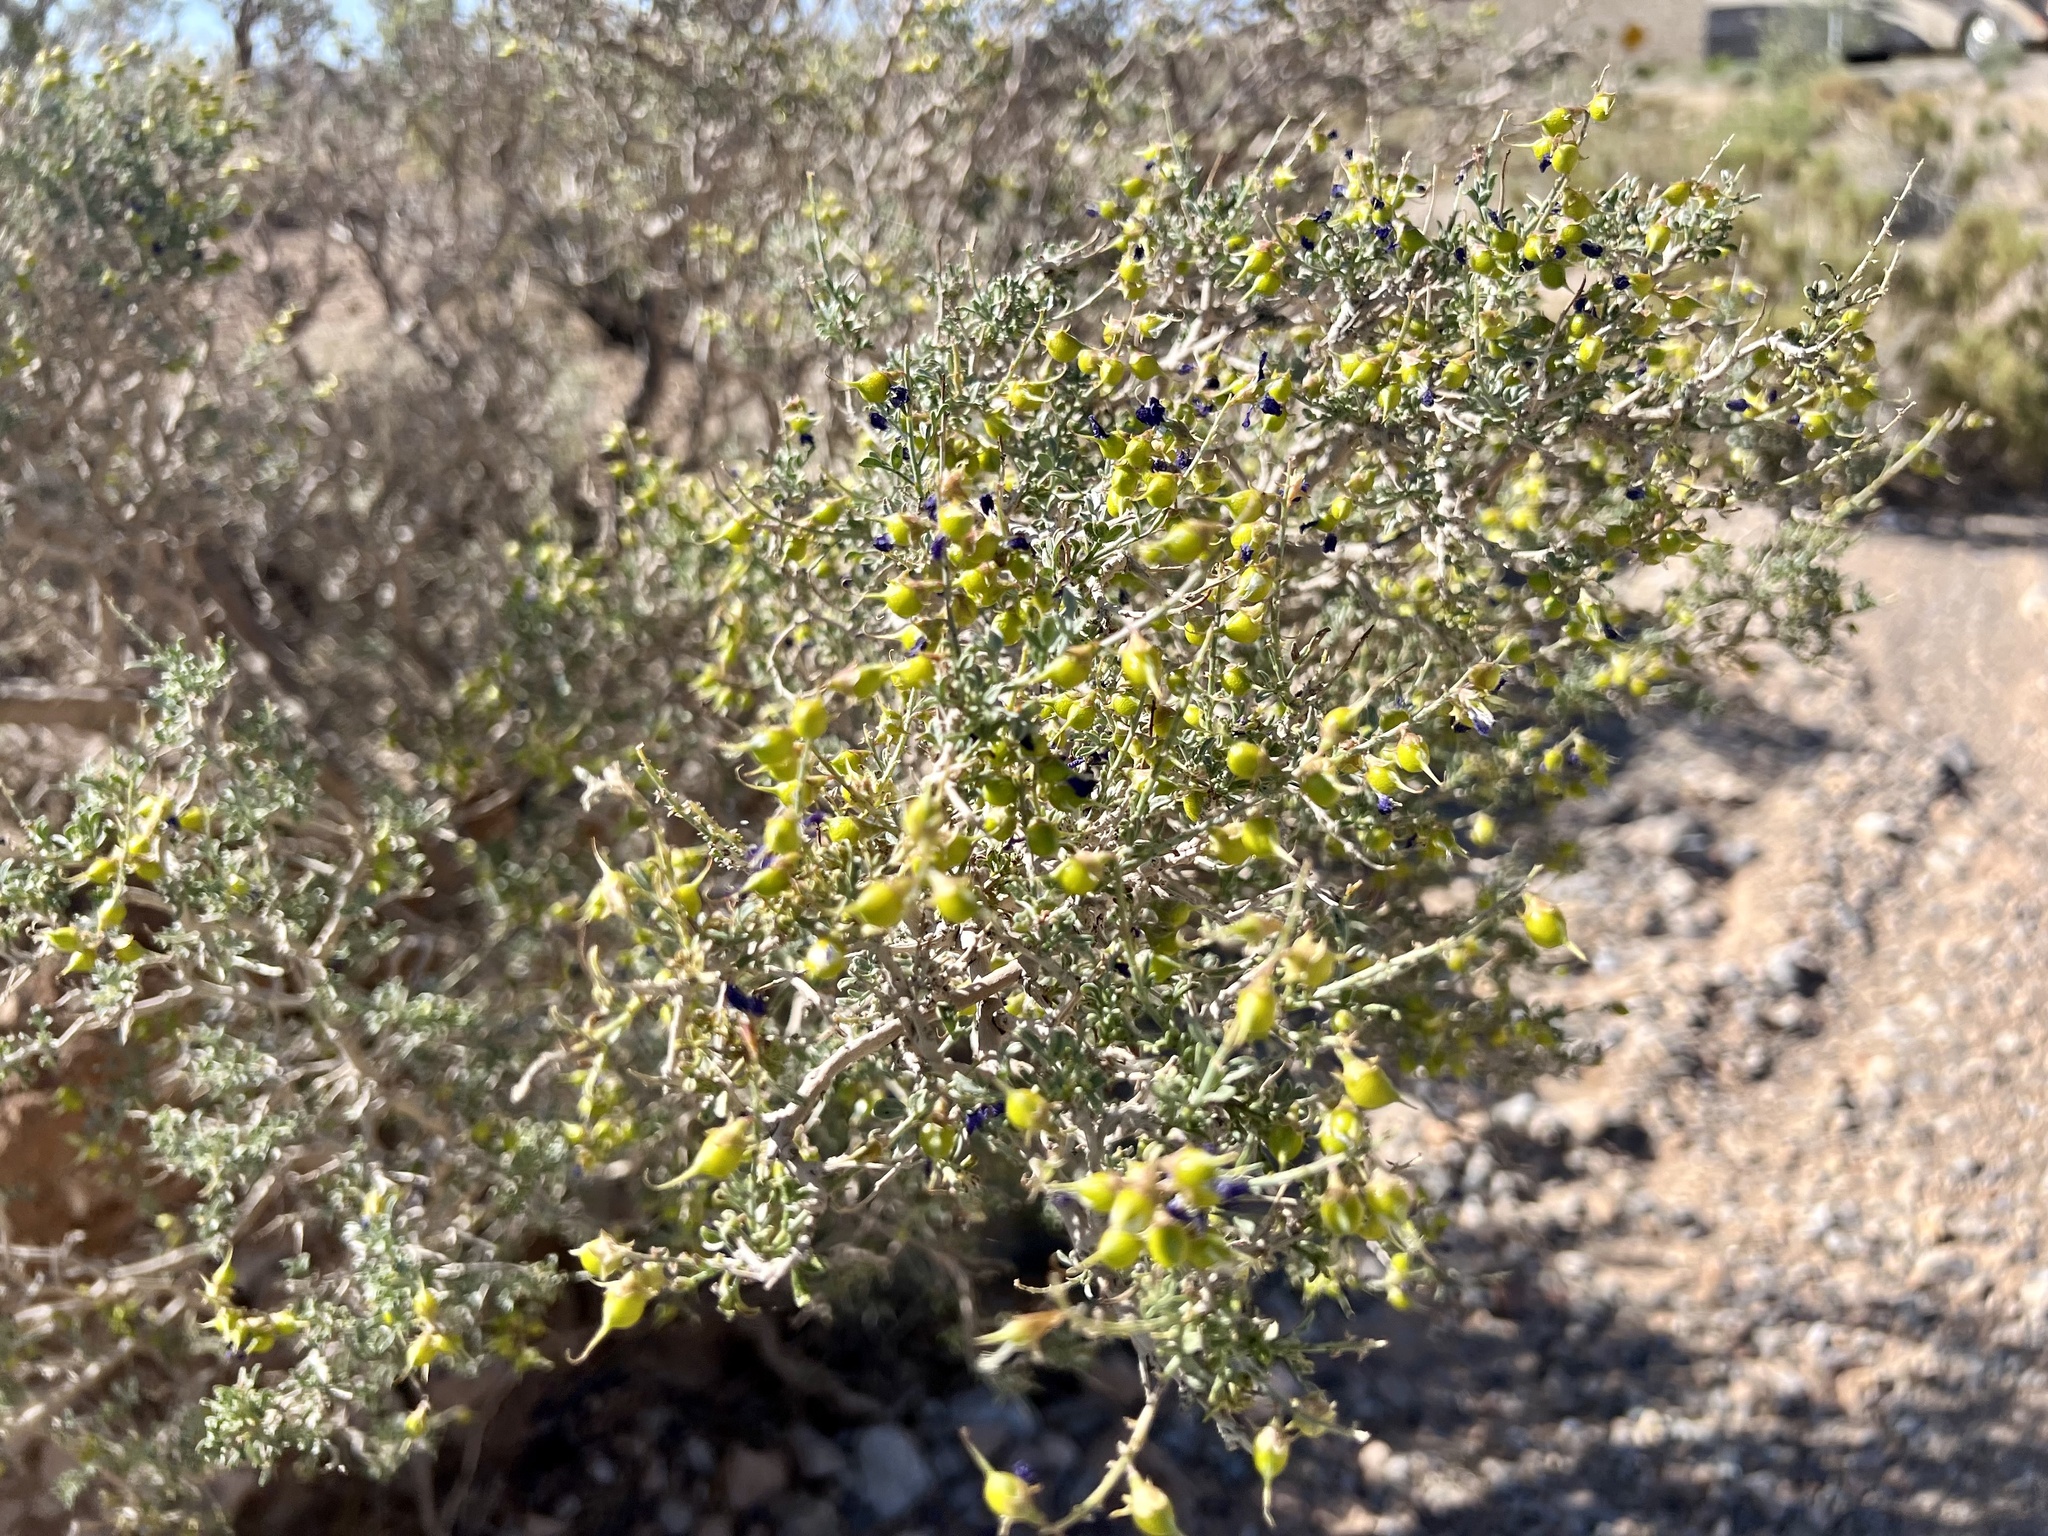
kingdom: Plantae
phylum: Tracheophyta
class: Magnoliopsida
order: Fabales
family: Fabaceae
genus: Psorothamnus
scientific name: Psorothamnus fremontii
